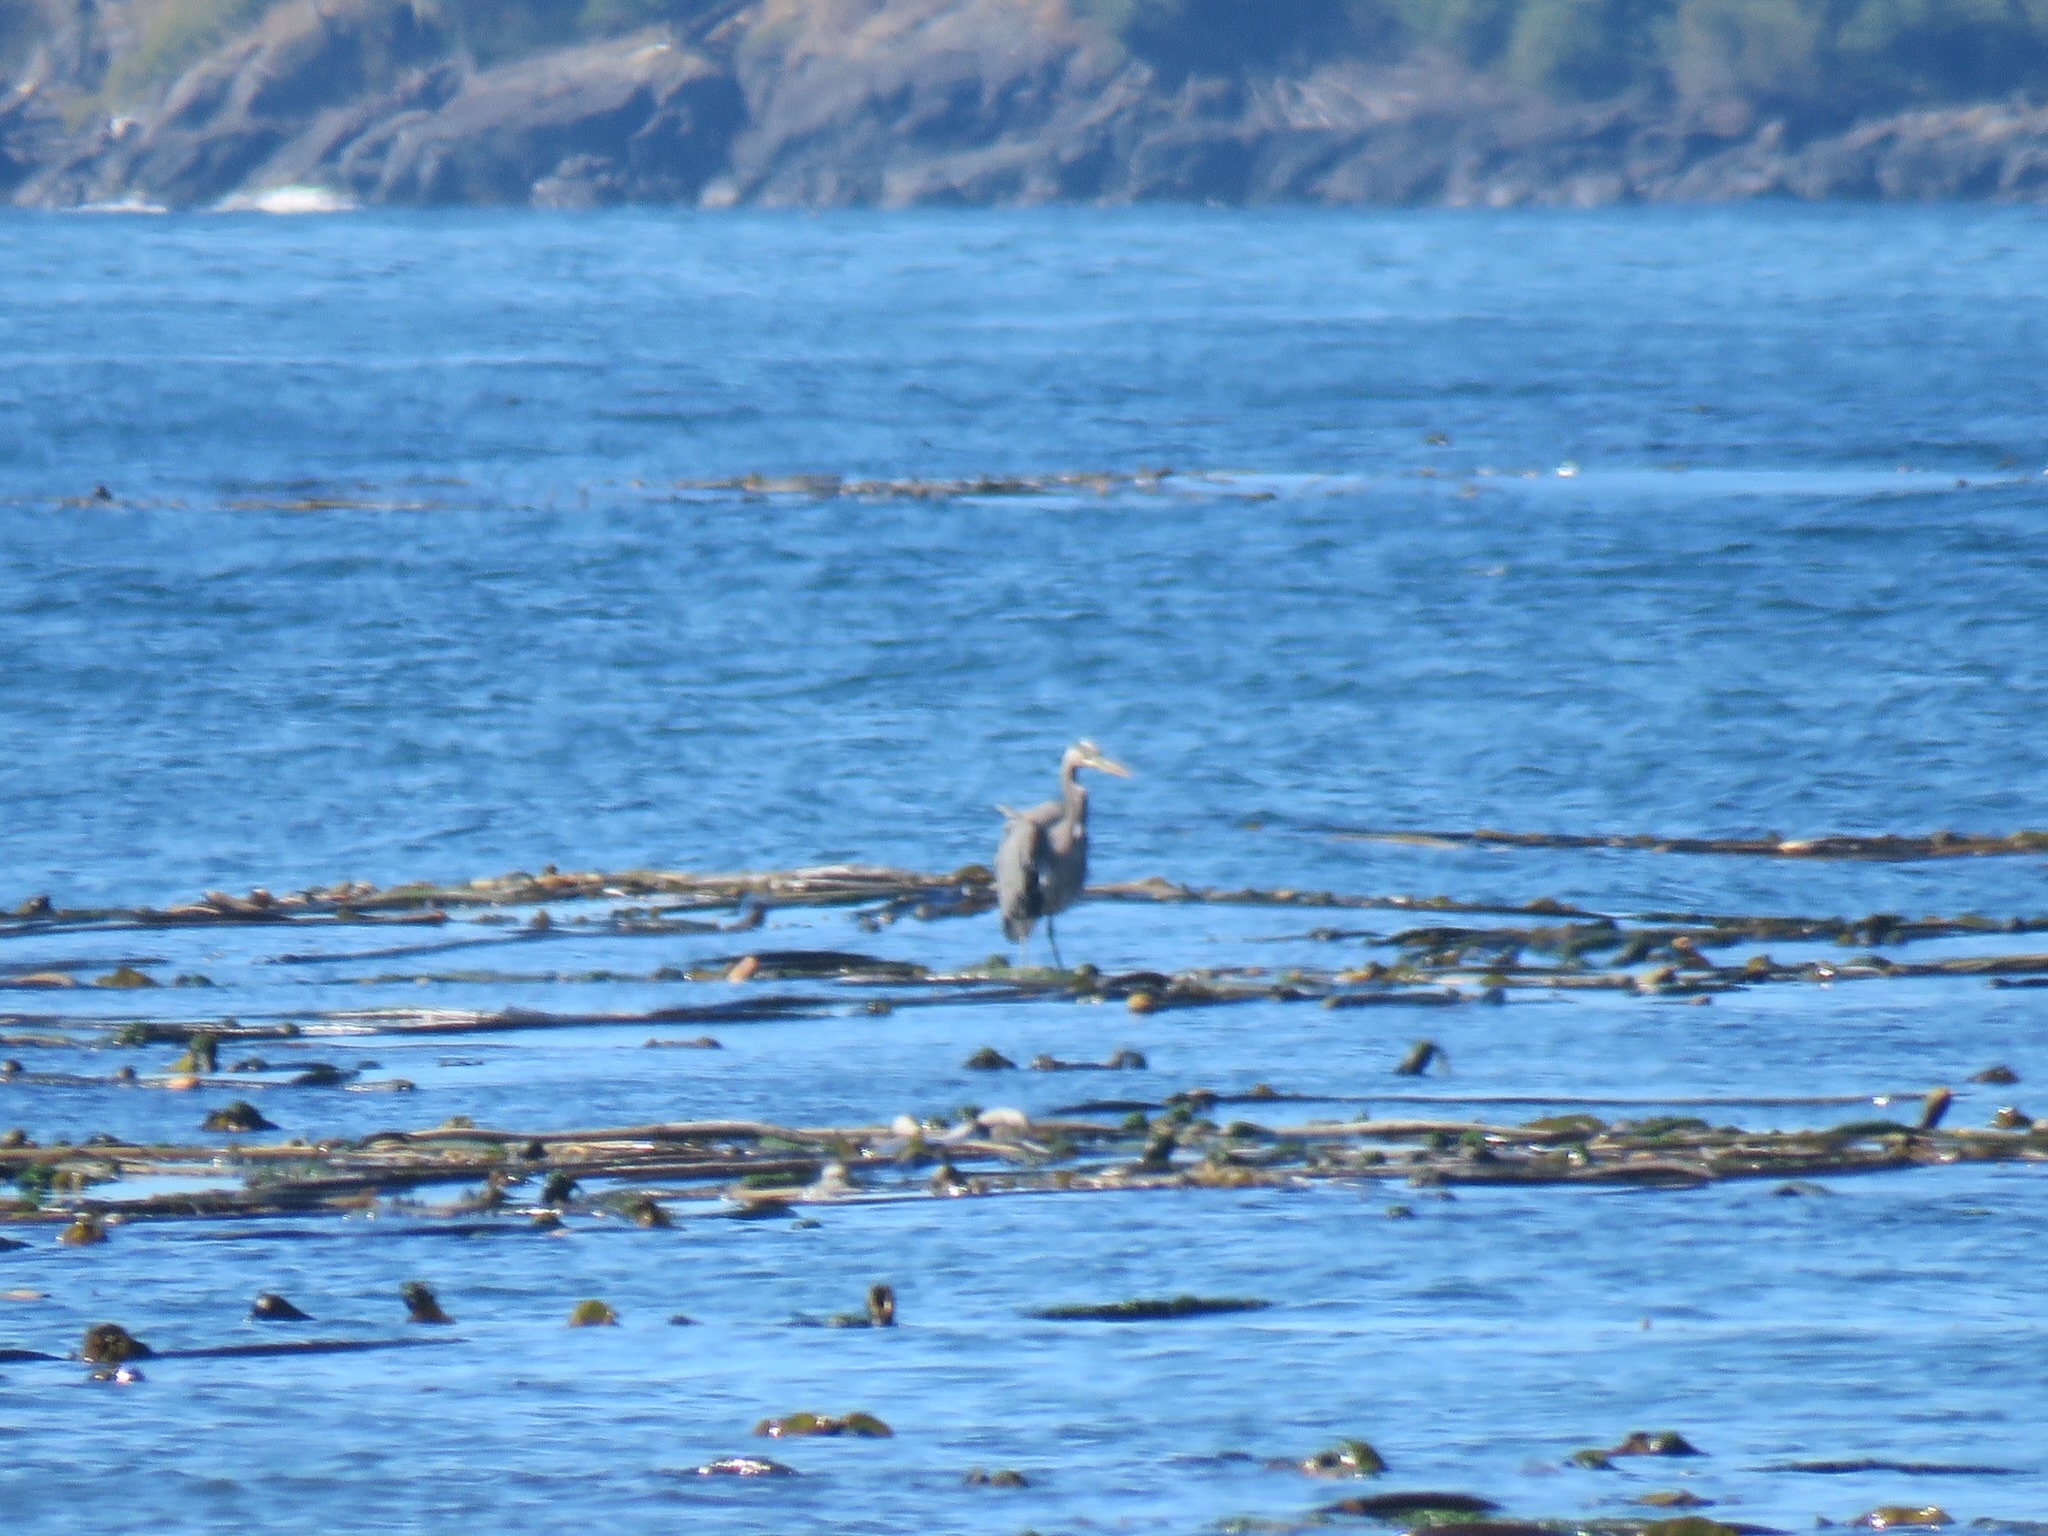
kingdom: Animalia
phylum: Chordata
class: Aves
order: Pelecaniformes
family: Ardeidae
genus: Ardea
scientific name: Ardea herodias
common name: Great blue heron
